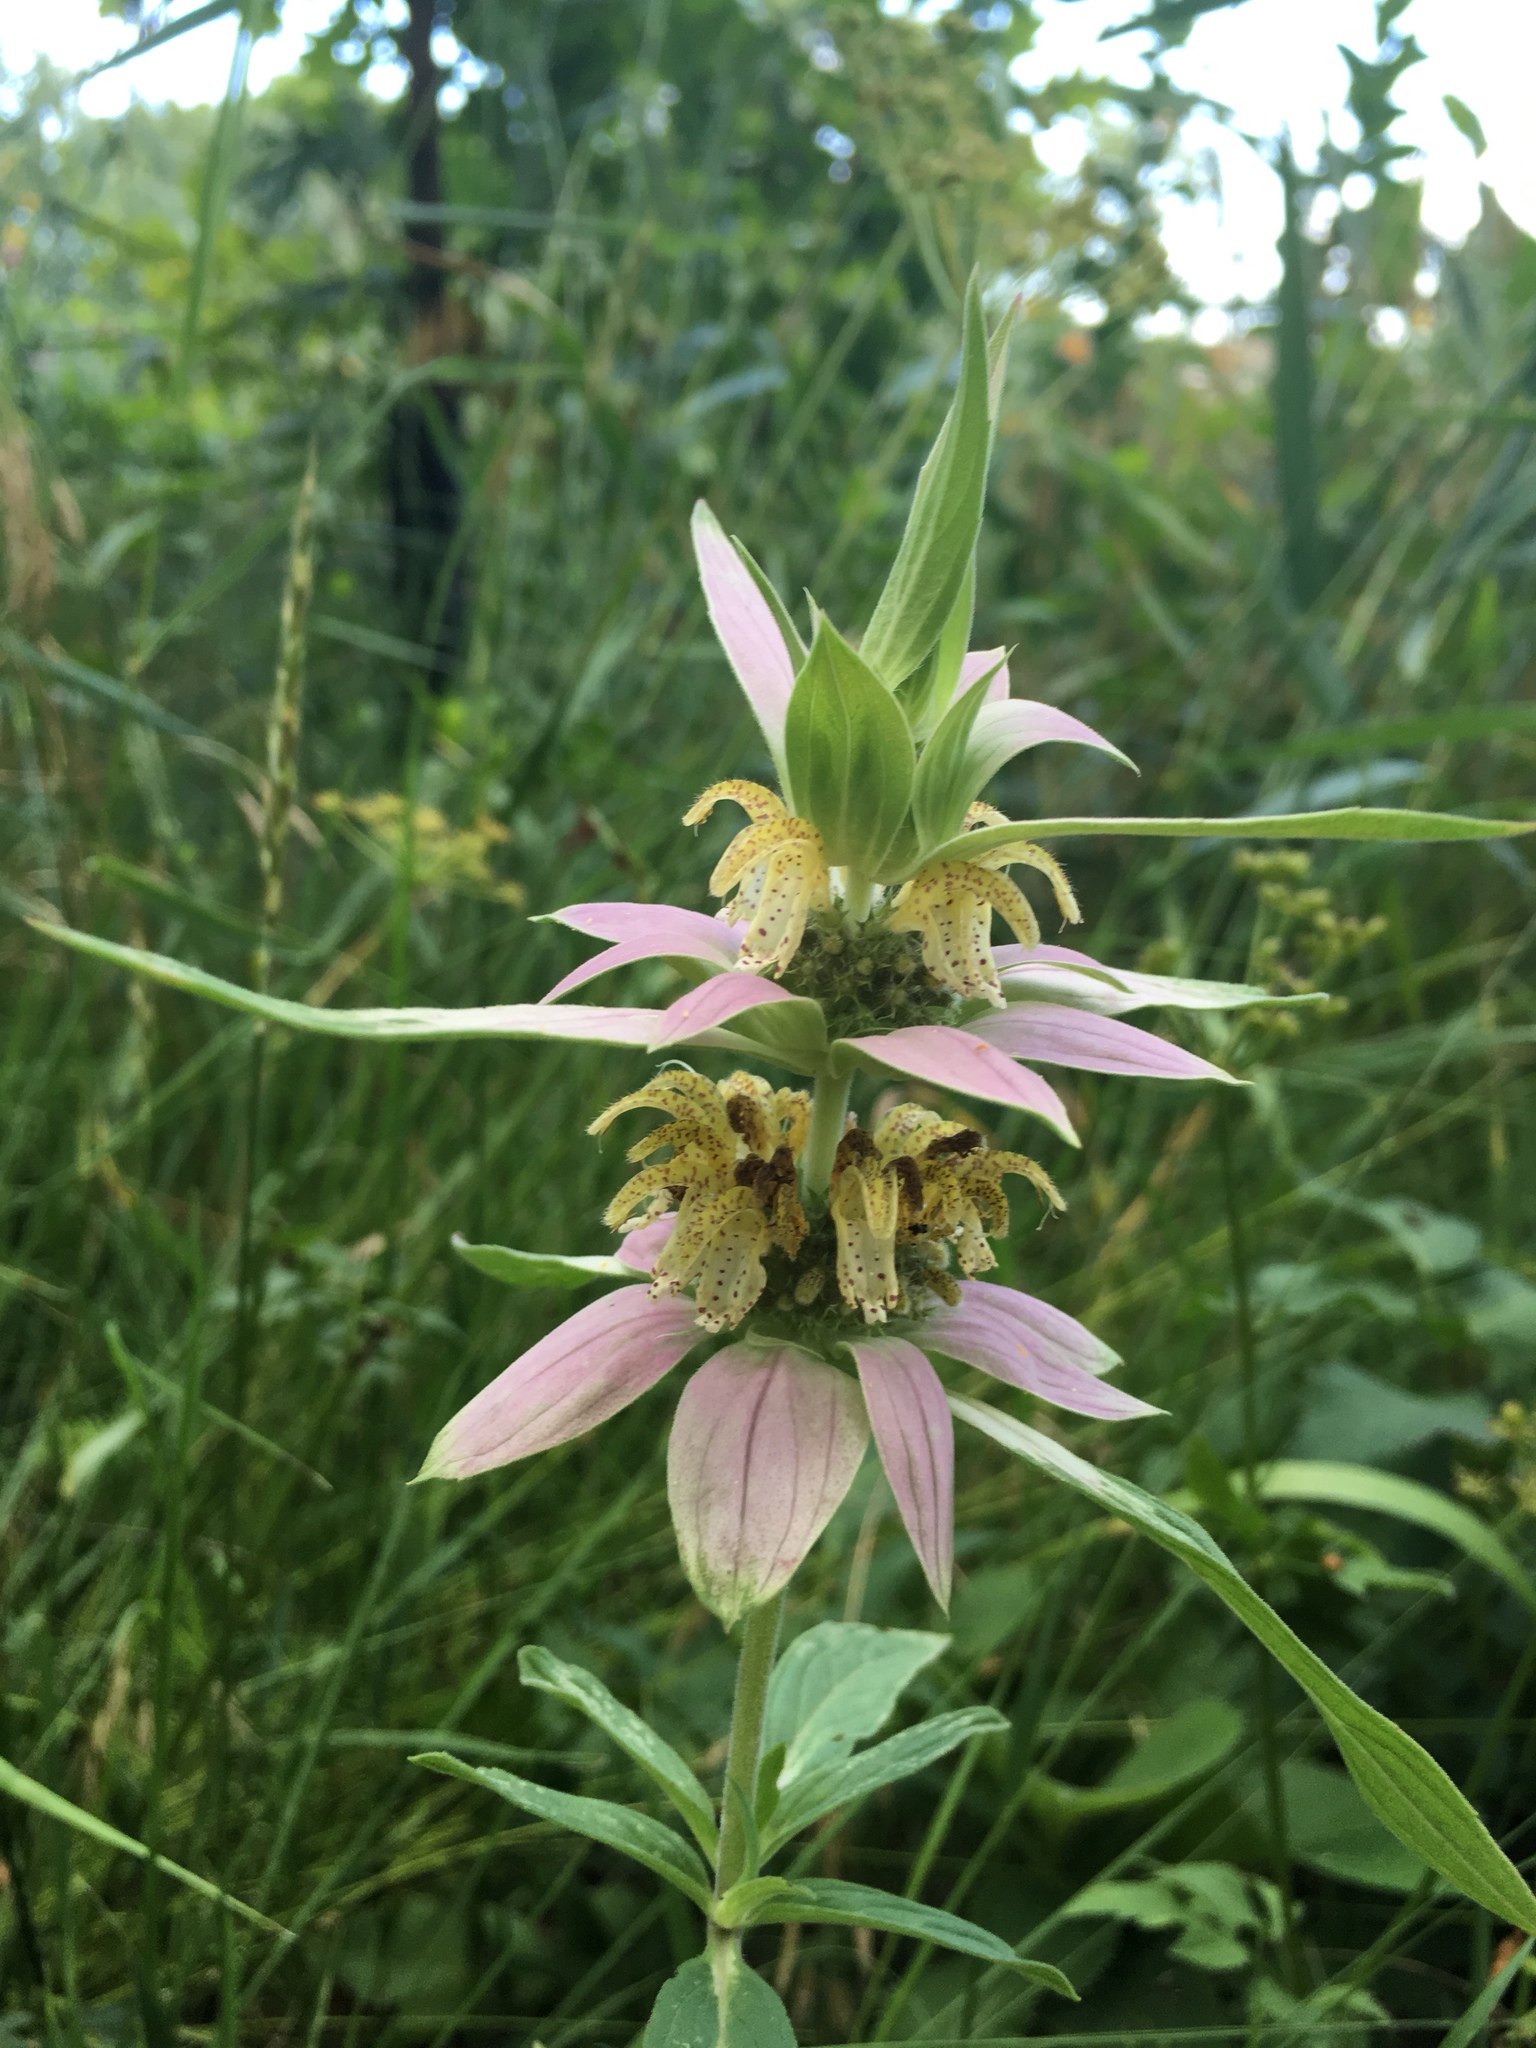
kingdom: Plantae
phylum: Tracheophyta
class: Magnoliopsida
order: Lamiales
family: Lamiaceae
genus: Monarda
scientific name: Monarda punctata
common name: Dotted monarda
